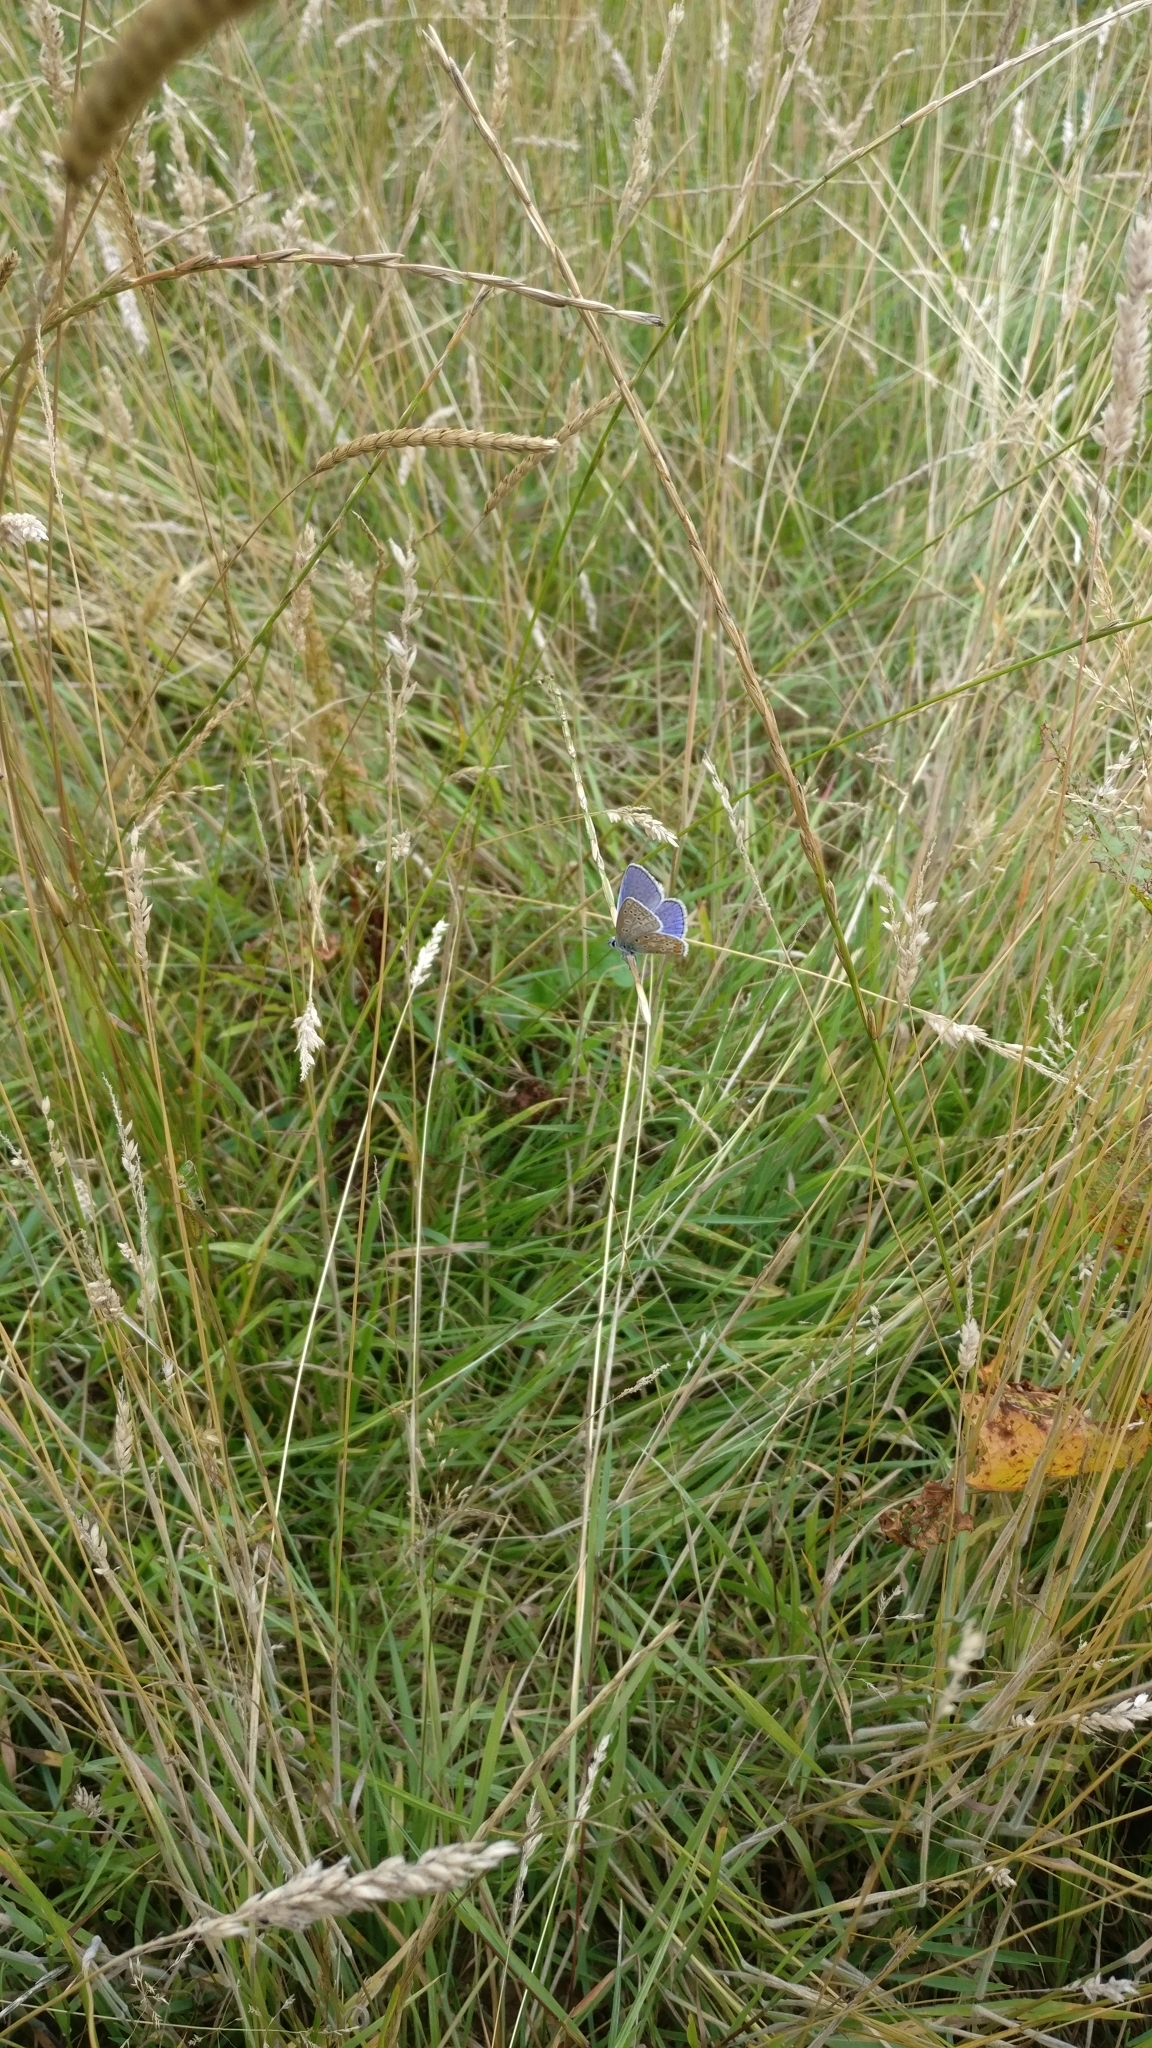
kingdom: Animalia
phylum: Arthropoda
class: Insecta
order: Lepidoptera
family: Lycaenidae
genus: Polyommatus
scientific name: Polyommatus icarus
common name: Common blue
